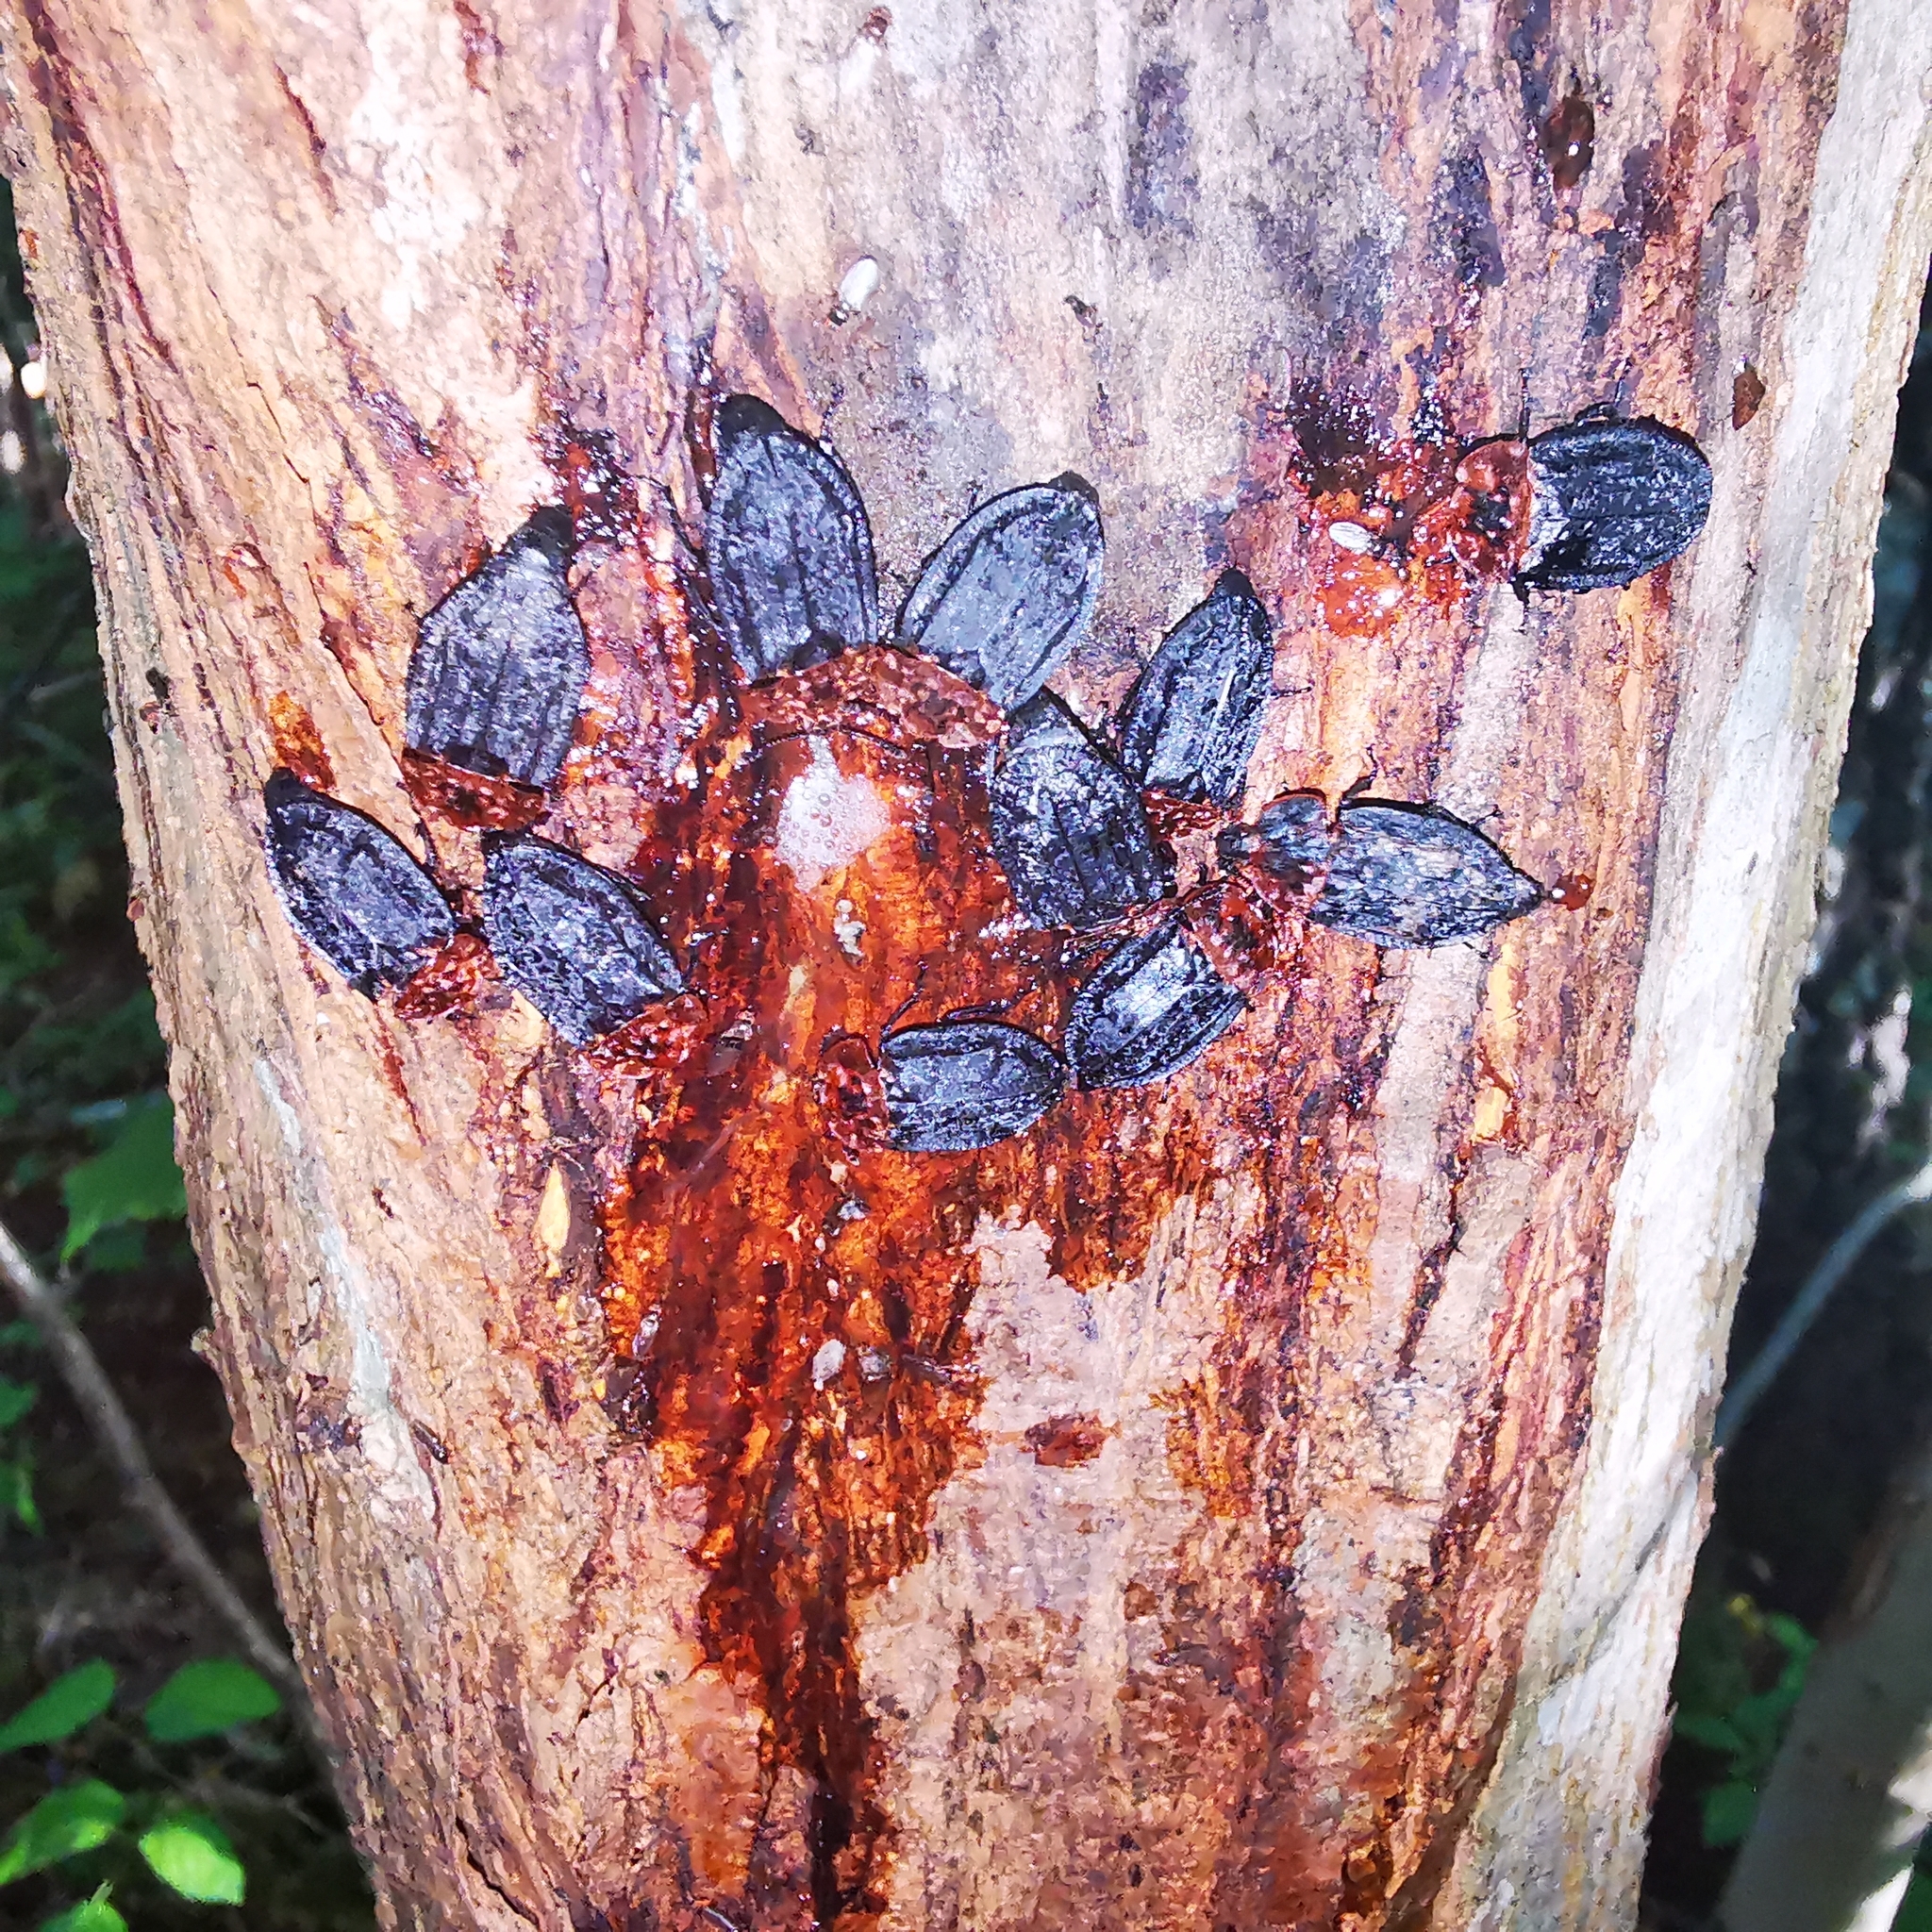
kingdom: Animalia
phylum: Arthropoda
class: Insecta
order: Coleoptera
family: Staphylinidae
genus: Oiceoptoma
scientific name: Oiceoptoma thoracicum
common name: Red-breasted carrion beetle
